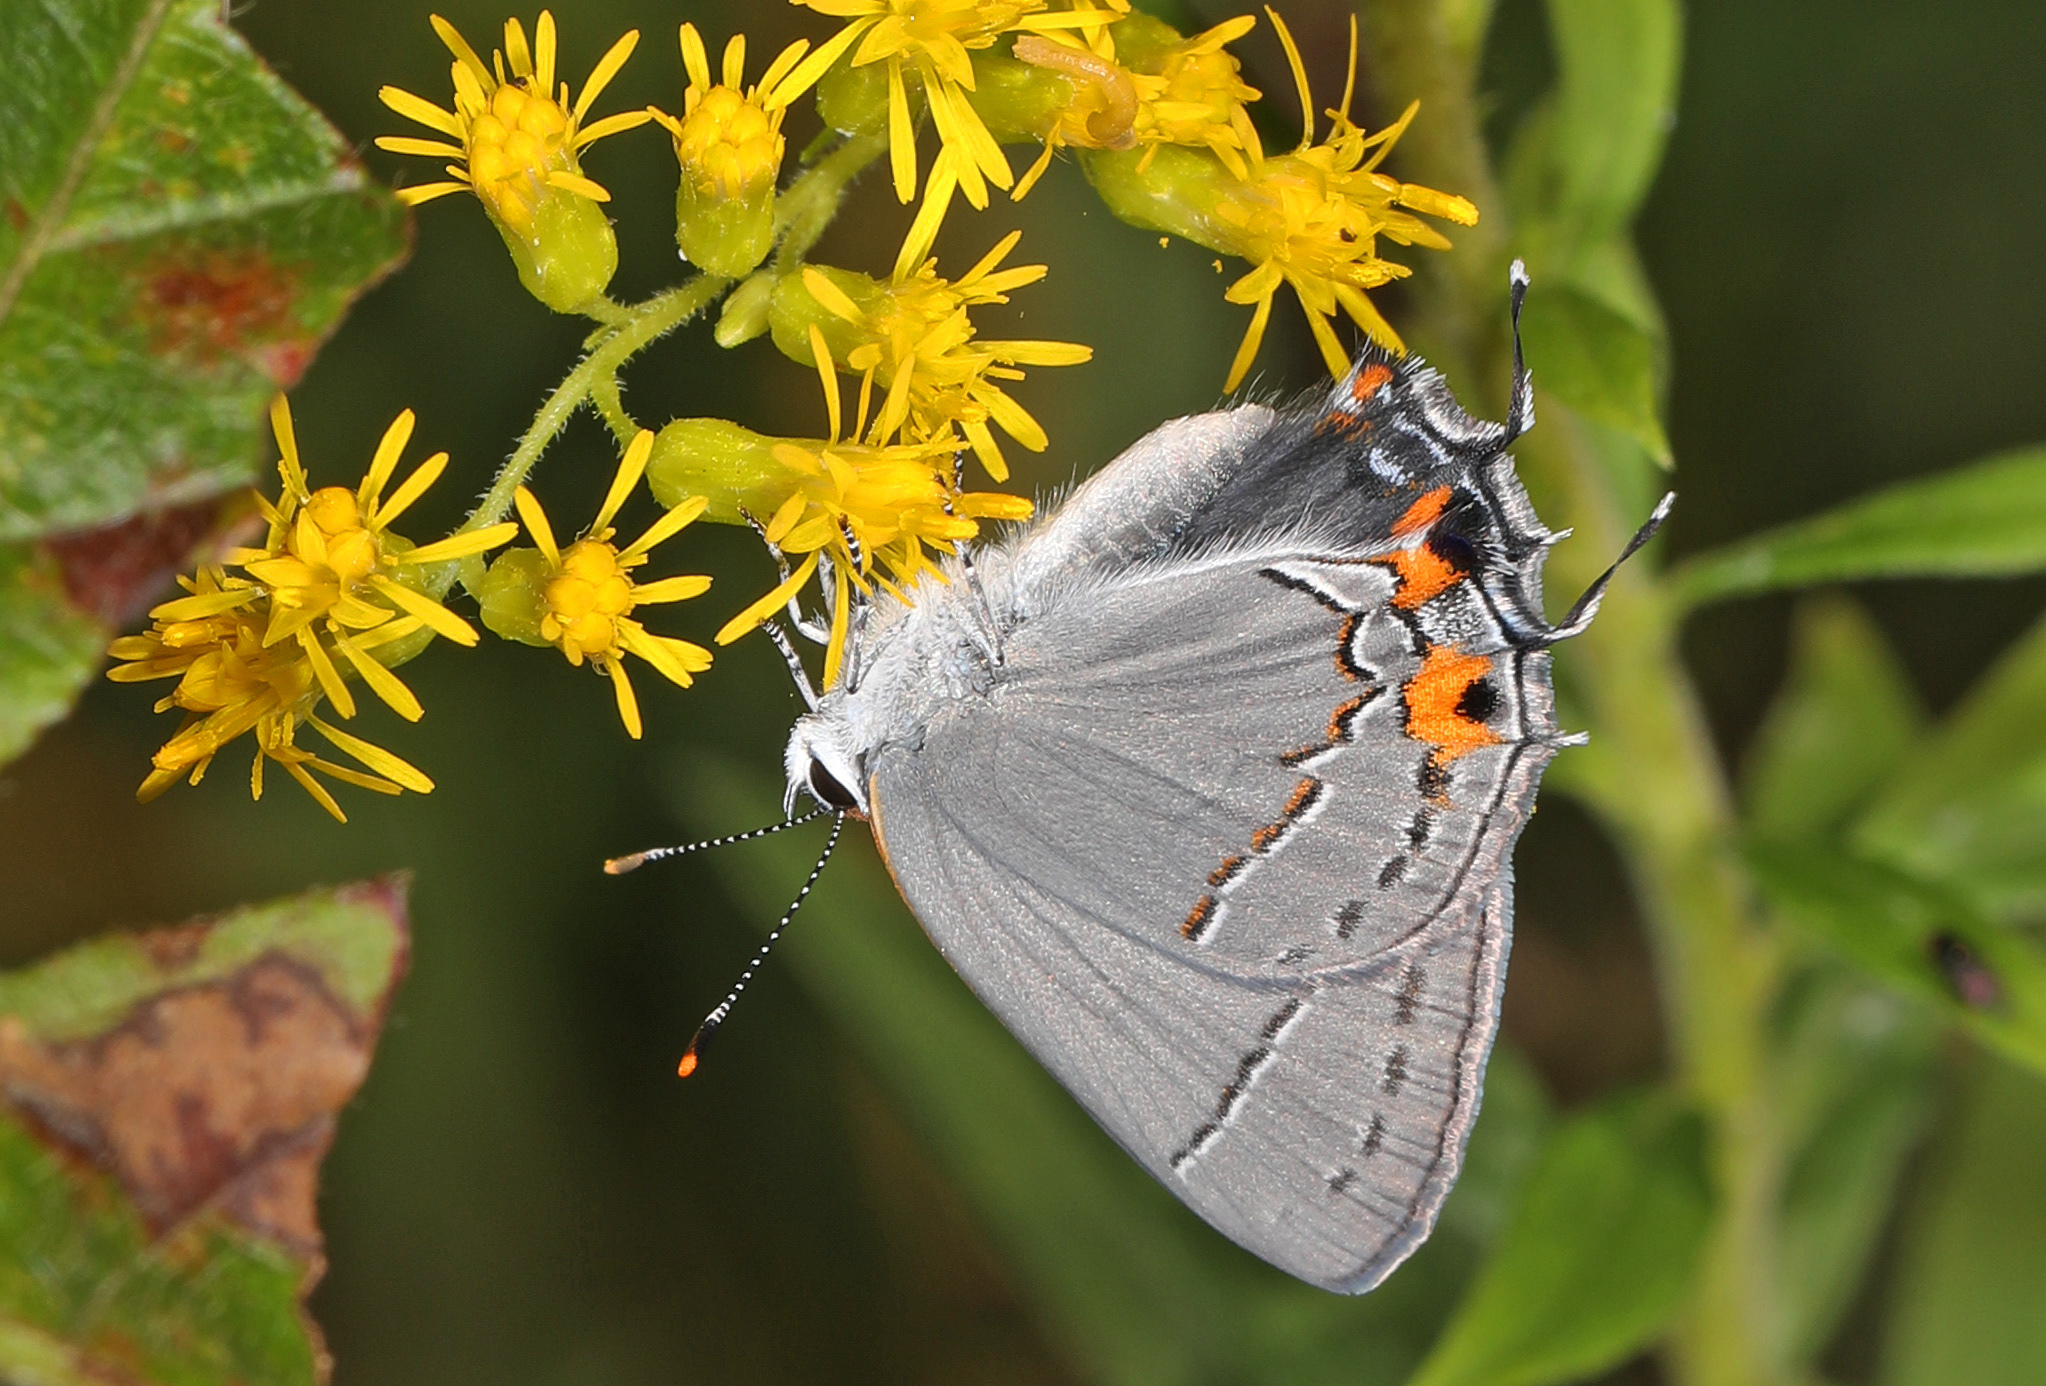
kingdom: Animalia
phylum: Arthropoda
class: Insecta
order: Lepidoptera
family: Lycaenidae
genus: Strymon
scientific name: Strymon melinus
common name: Gray hairstreak
